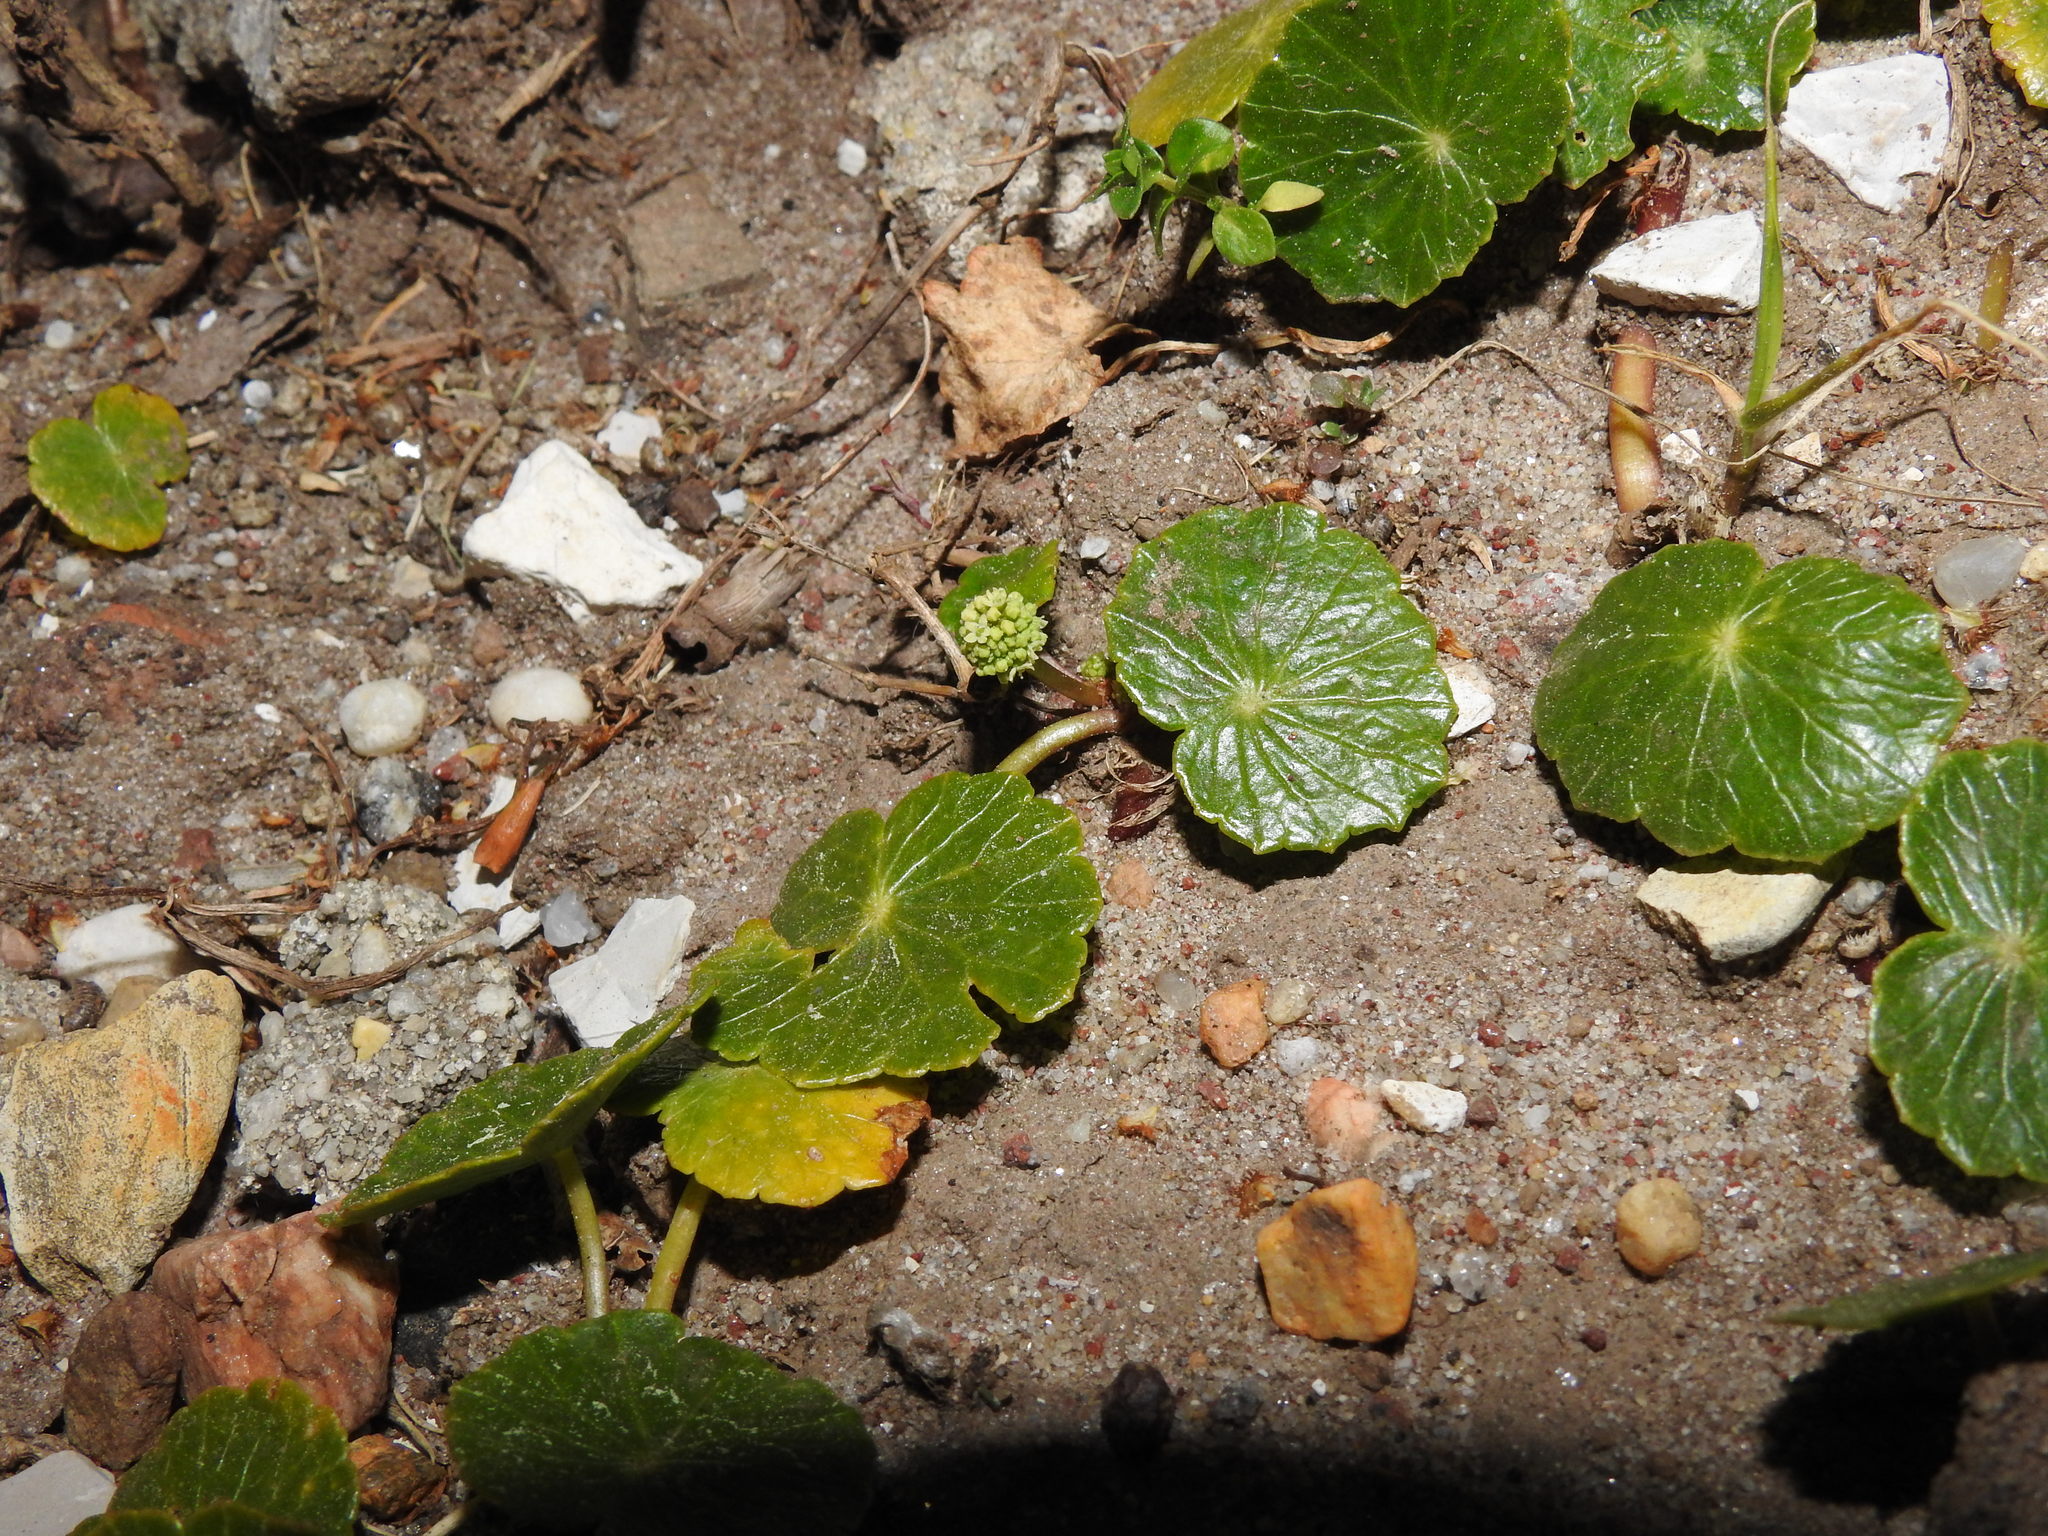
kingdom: Plantae
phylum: Tracheophyta
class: Magnoliopsida
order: Apiales
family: Araliaceae
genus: Hydrocotyle
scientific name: Hydrocotyle bonariensis
